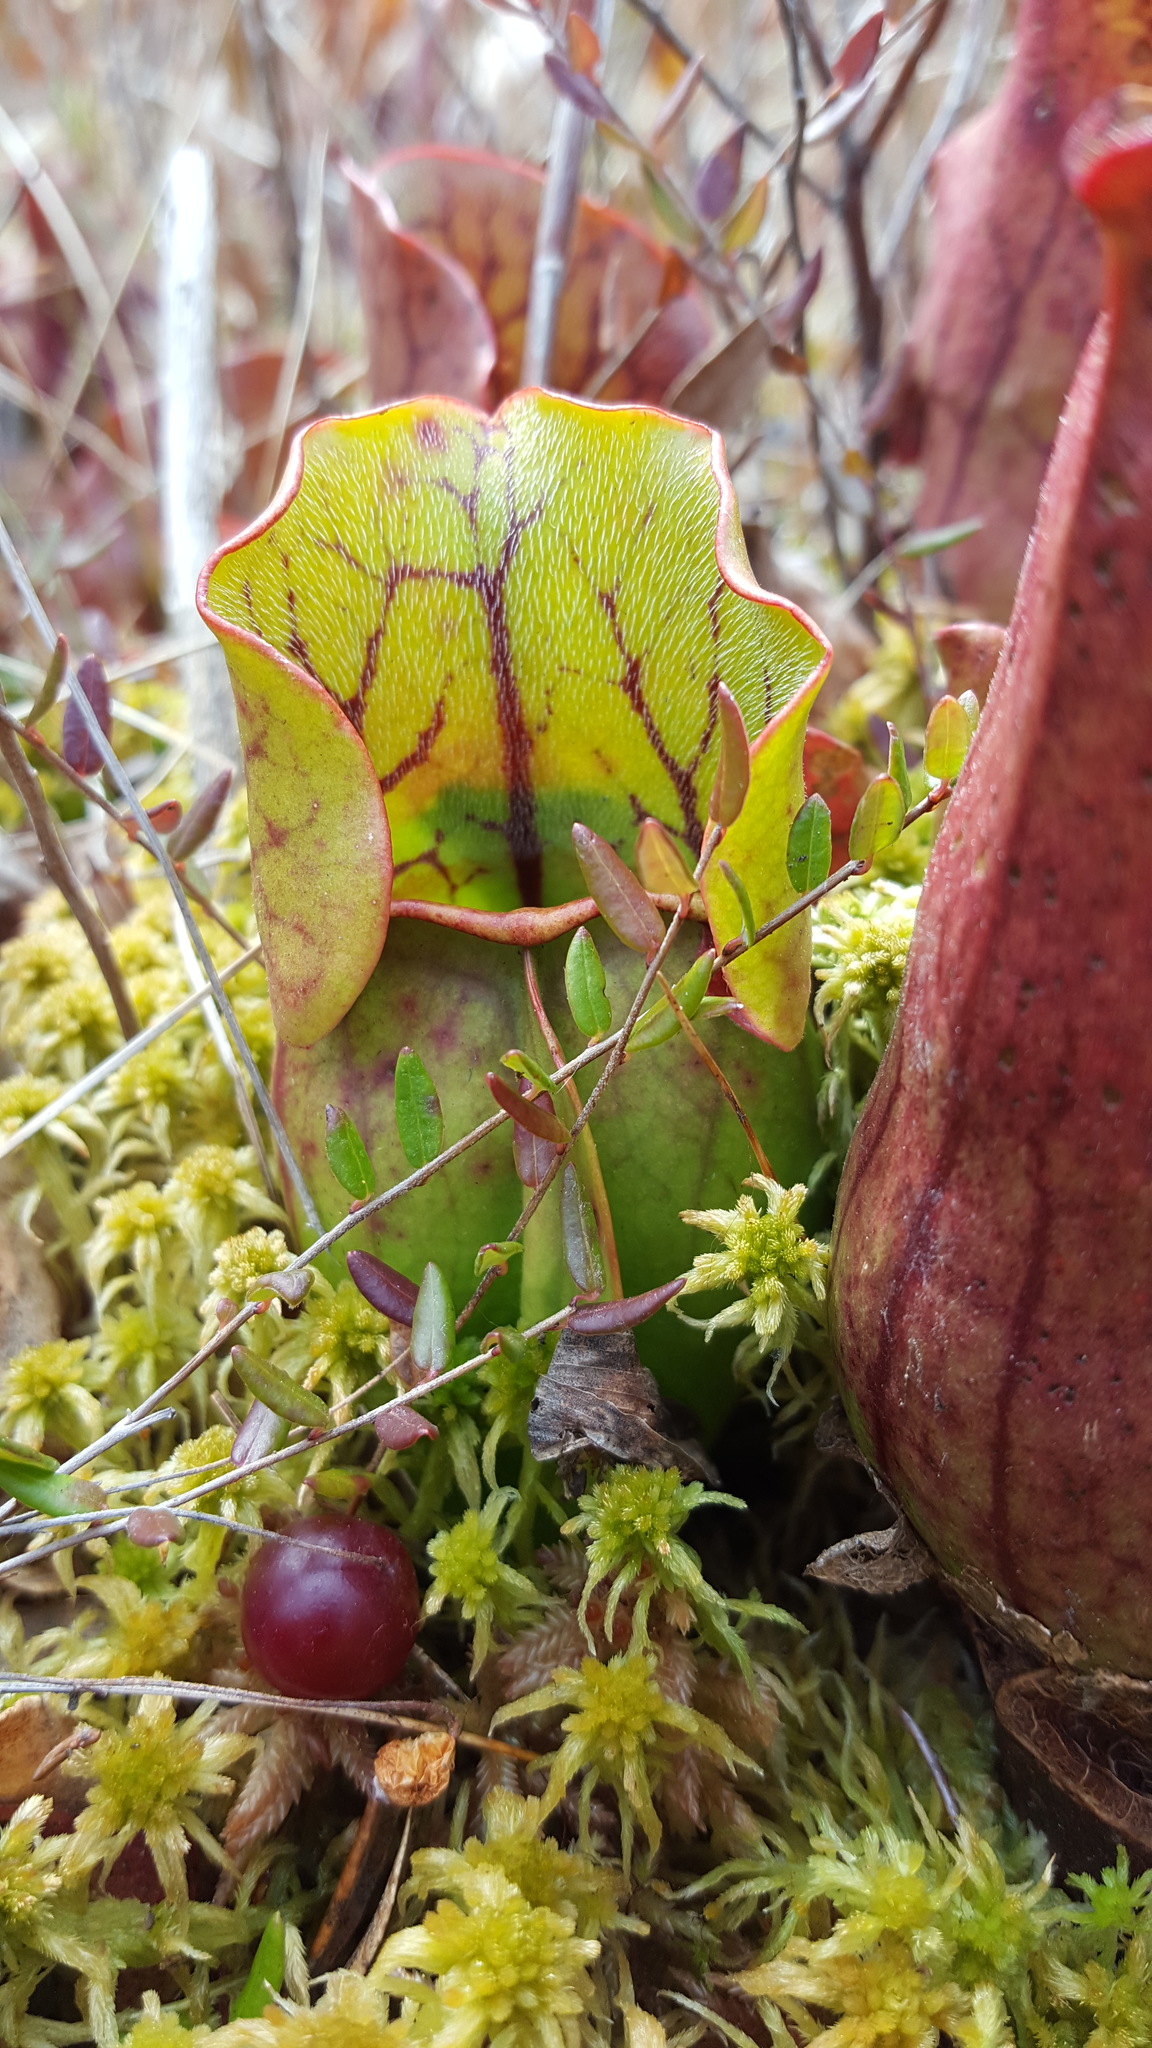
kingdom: Plantae
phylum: Tracheophyta
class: Magnoliopsida
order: Ericales
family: Sarraceniaceae
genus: Sarracenia
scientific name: Sarracenia purpurea
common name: Pitcherplant
